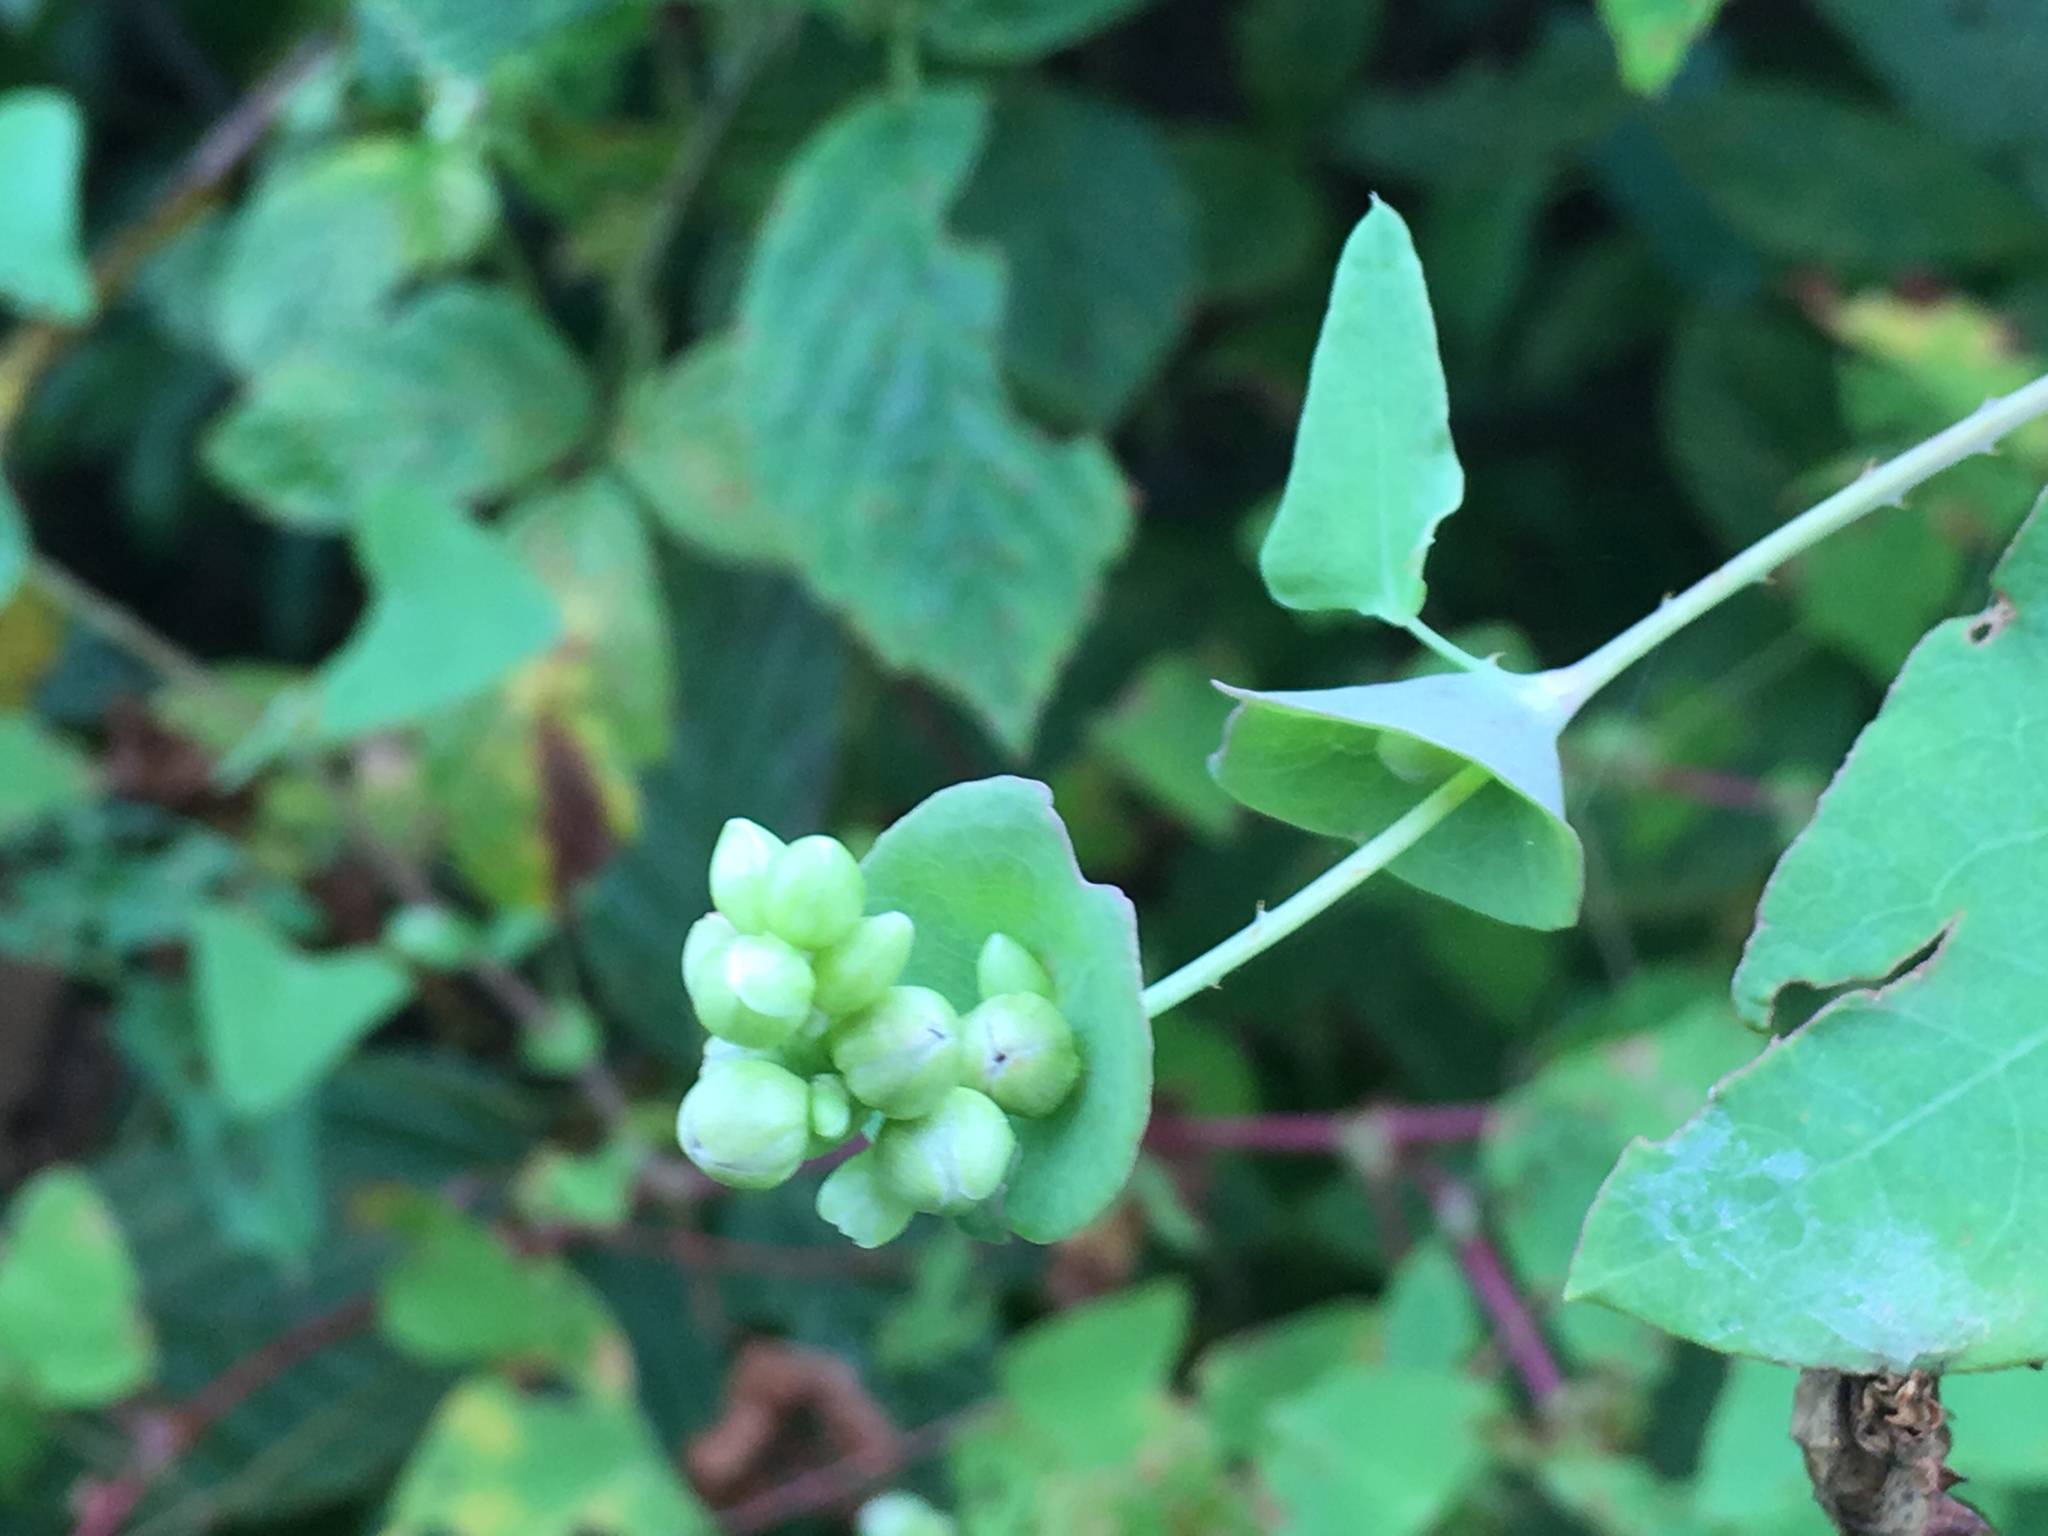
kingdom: Plantae
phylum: Tracheophyta
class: Magnoliopsida
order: Caryophyllales
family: Polygonaceae
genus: Persicaria
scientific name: Persicaria perfoliata
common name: Asiatic tearthumb
